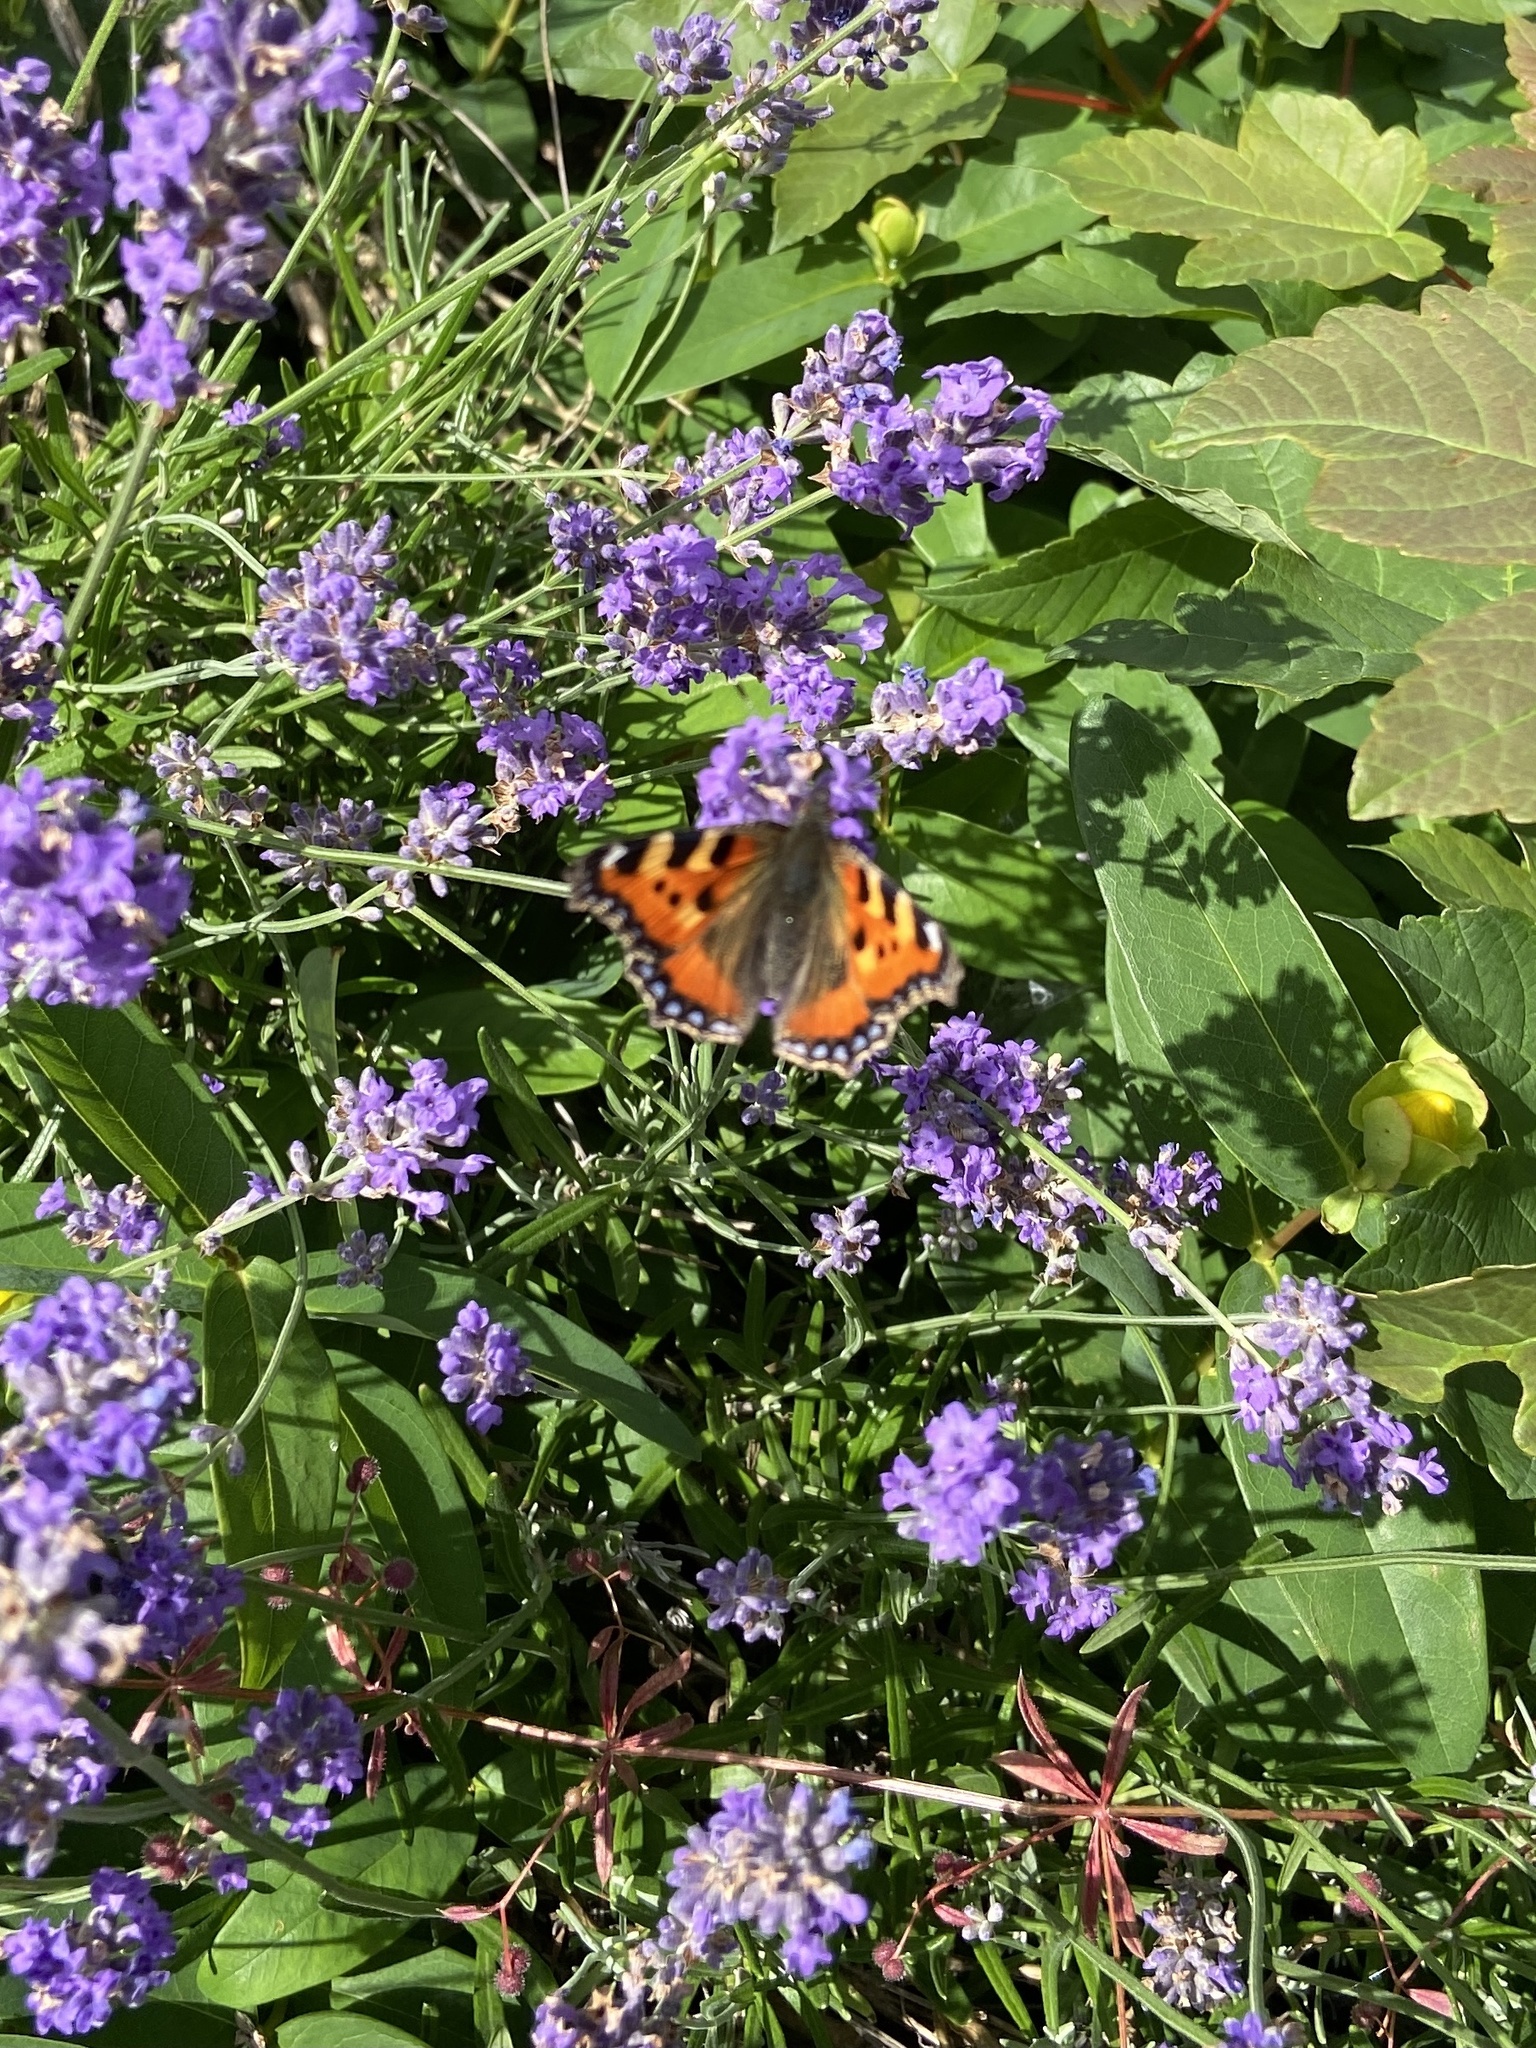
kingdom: Animalia
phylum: Arthropoda
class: Insecta
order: Lepidoptera
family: Nymphalidae
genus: Aglais
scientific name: Aglais urticae
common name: Small tortoiseshell
